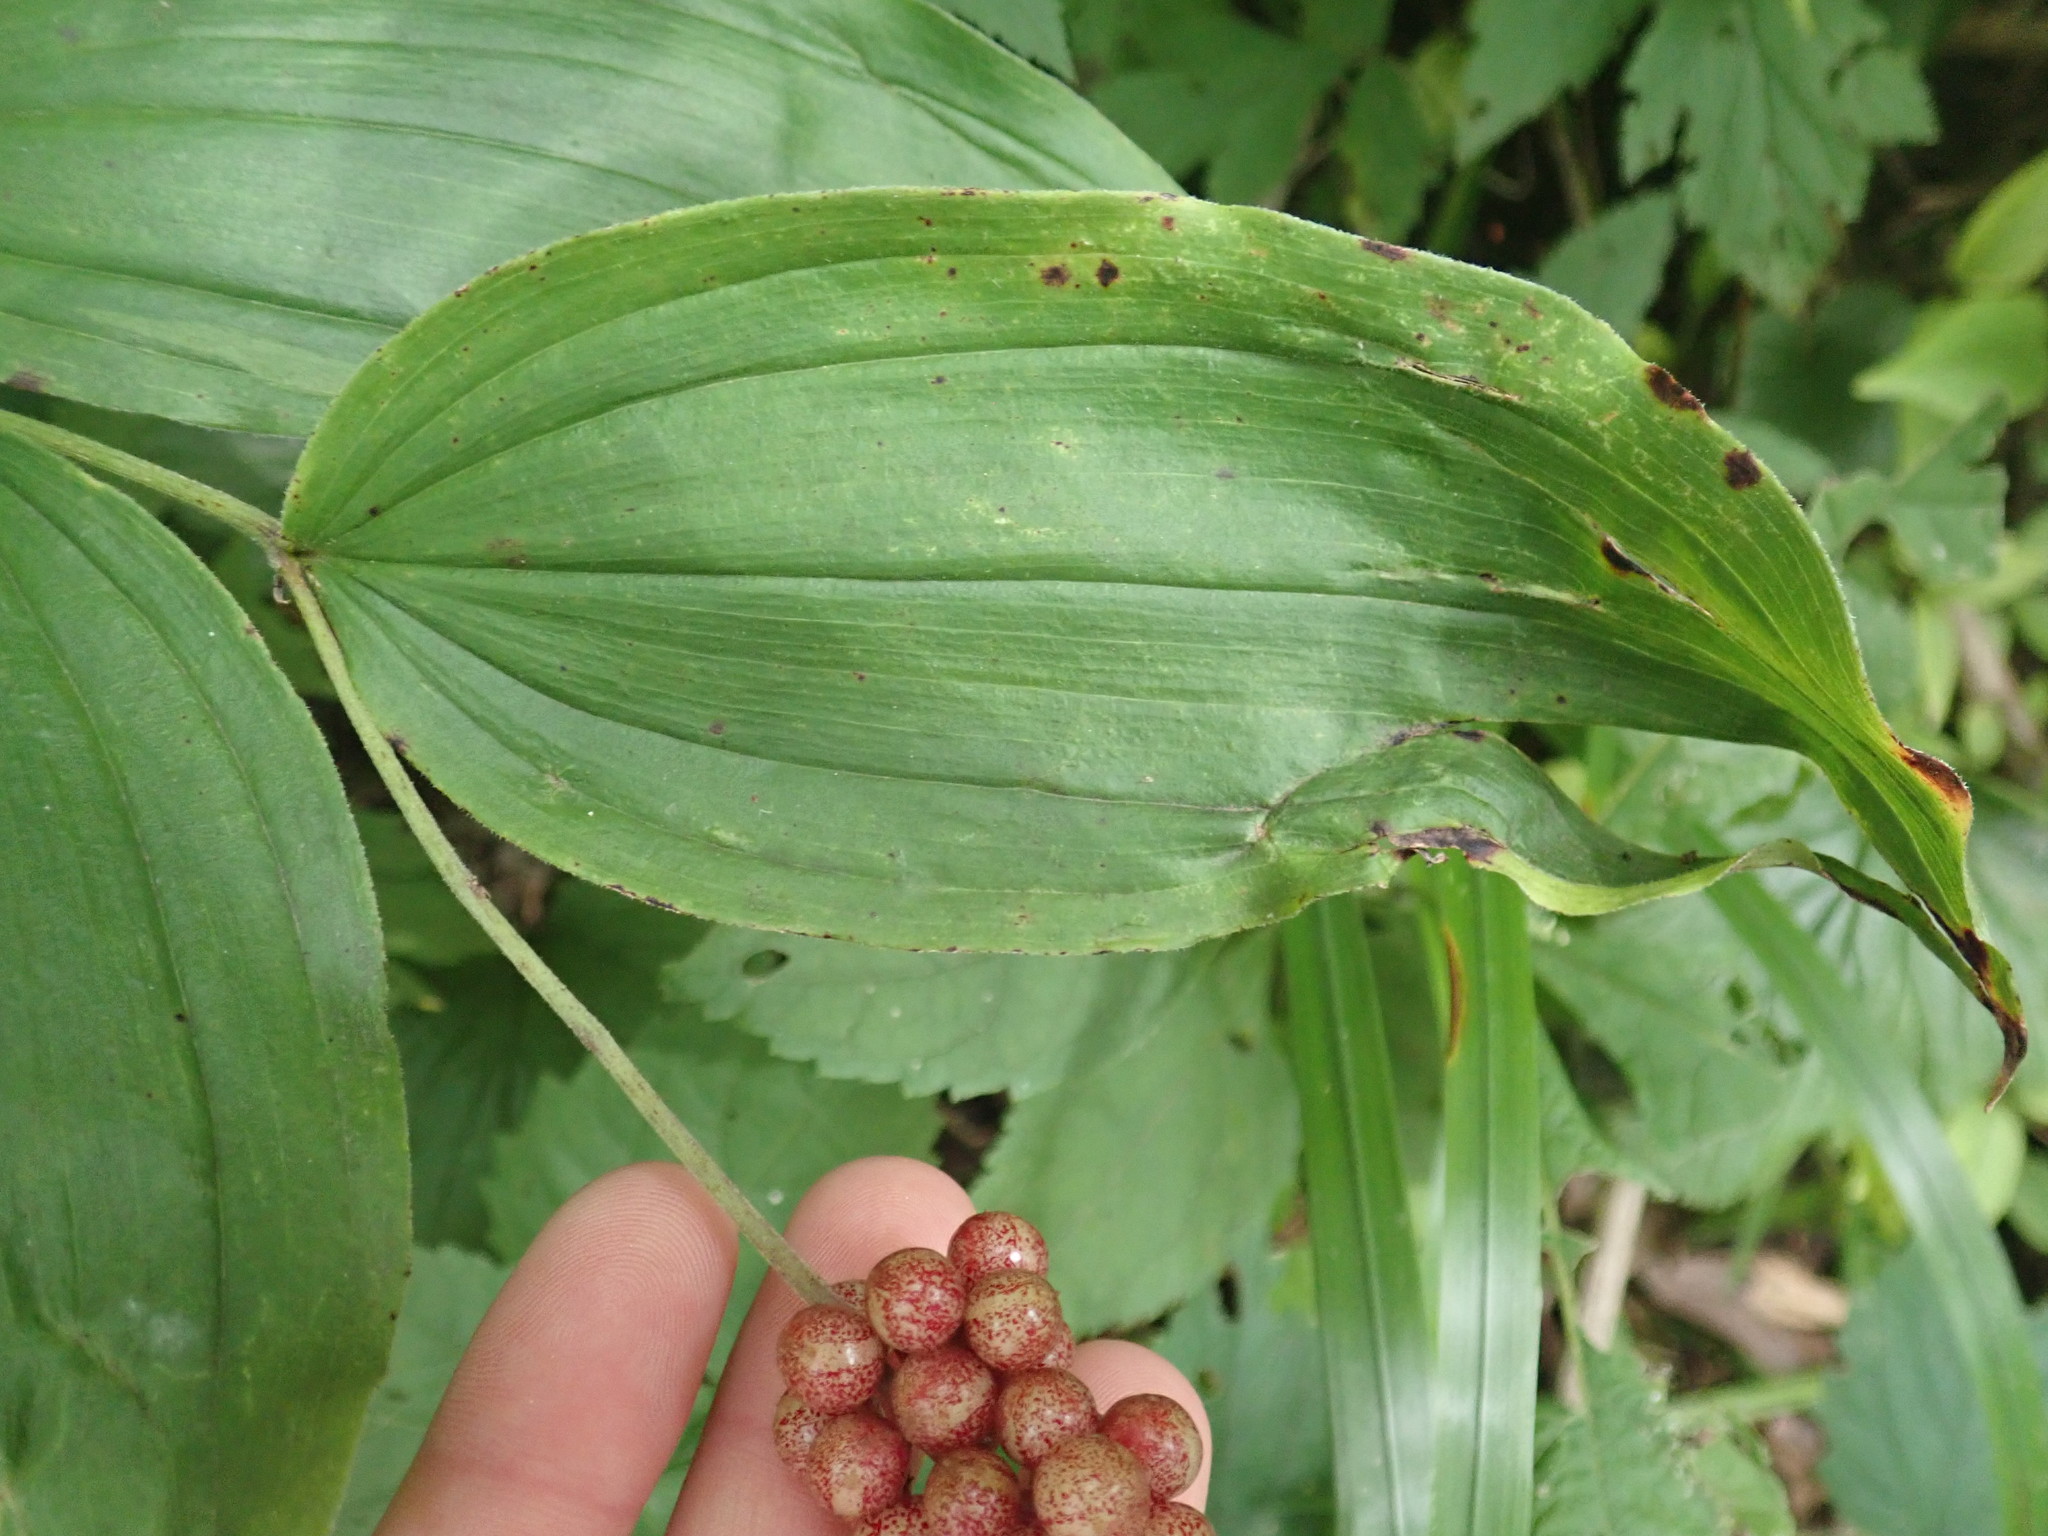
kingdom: Plantae
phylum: Tracheophyta
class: Liliopsida
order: Asparagales
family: Asparagaceae
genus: Maianthemum
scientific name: Maianthemum racemosum
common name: False spikenard
